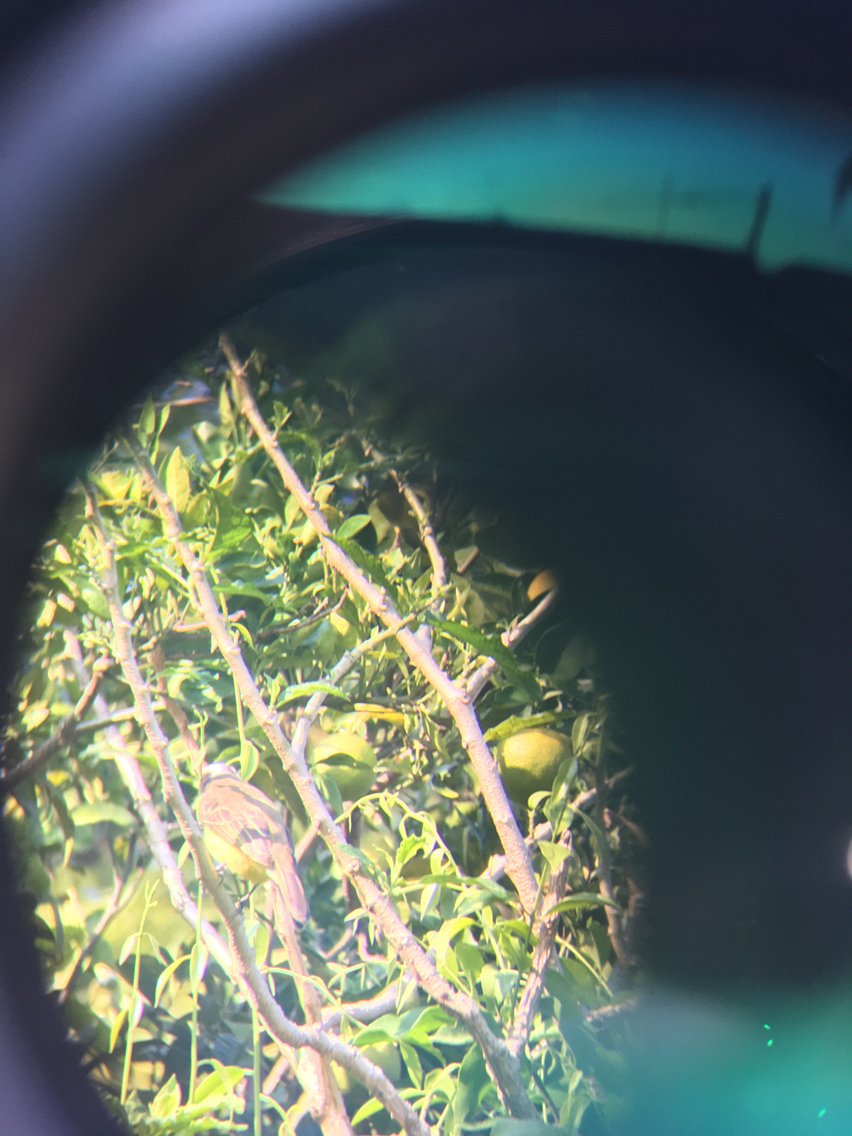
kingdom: Animalia
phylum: Chordata
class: Aves
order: Passeriformes
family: Tyrannidae
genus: Myiozetetes
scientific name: Myiozetetes similis
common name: Social flycatcher
